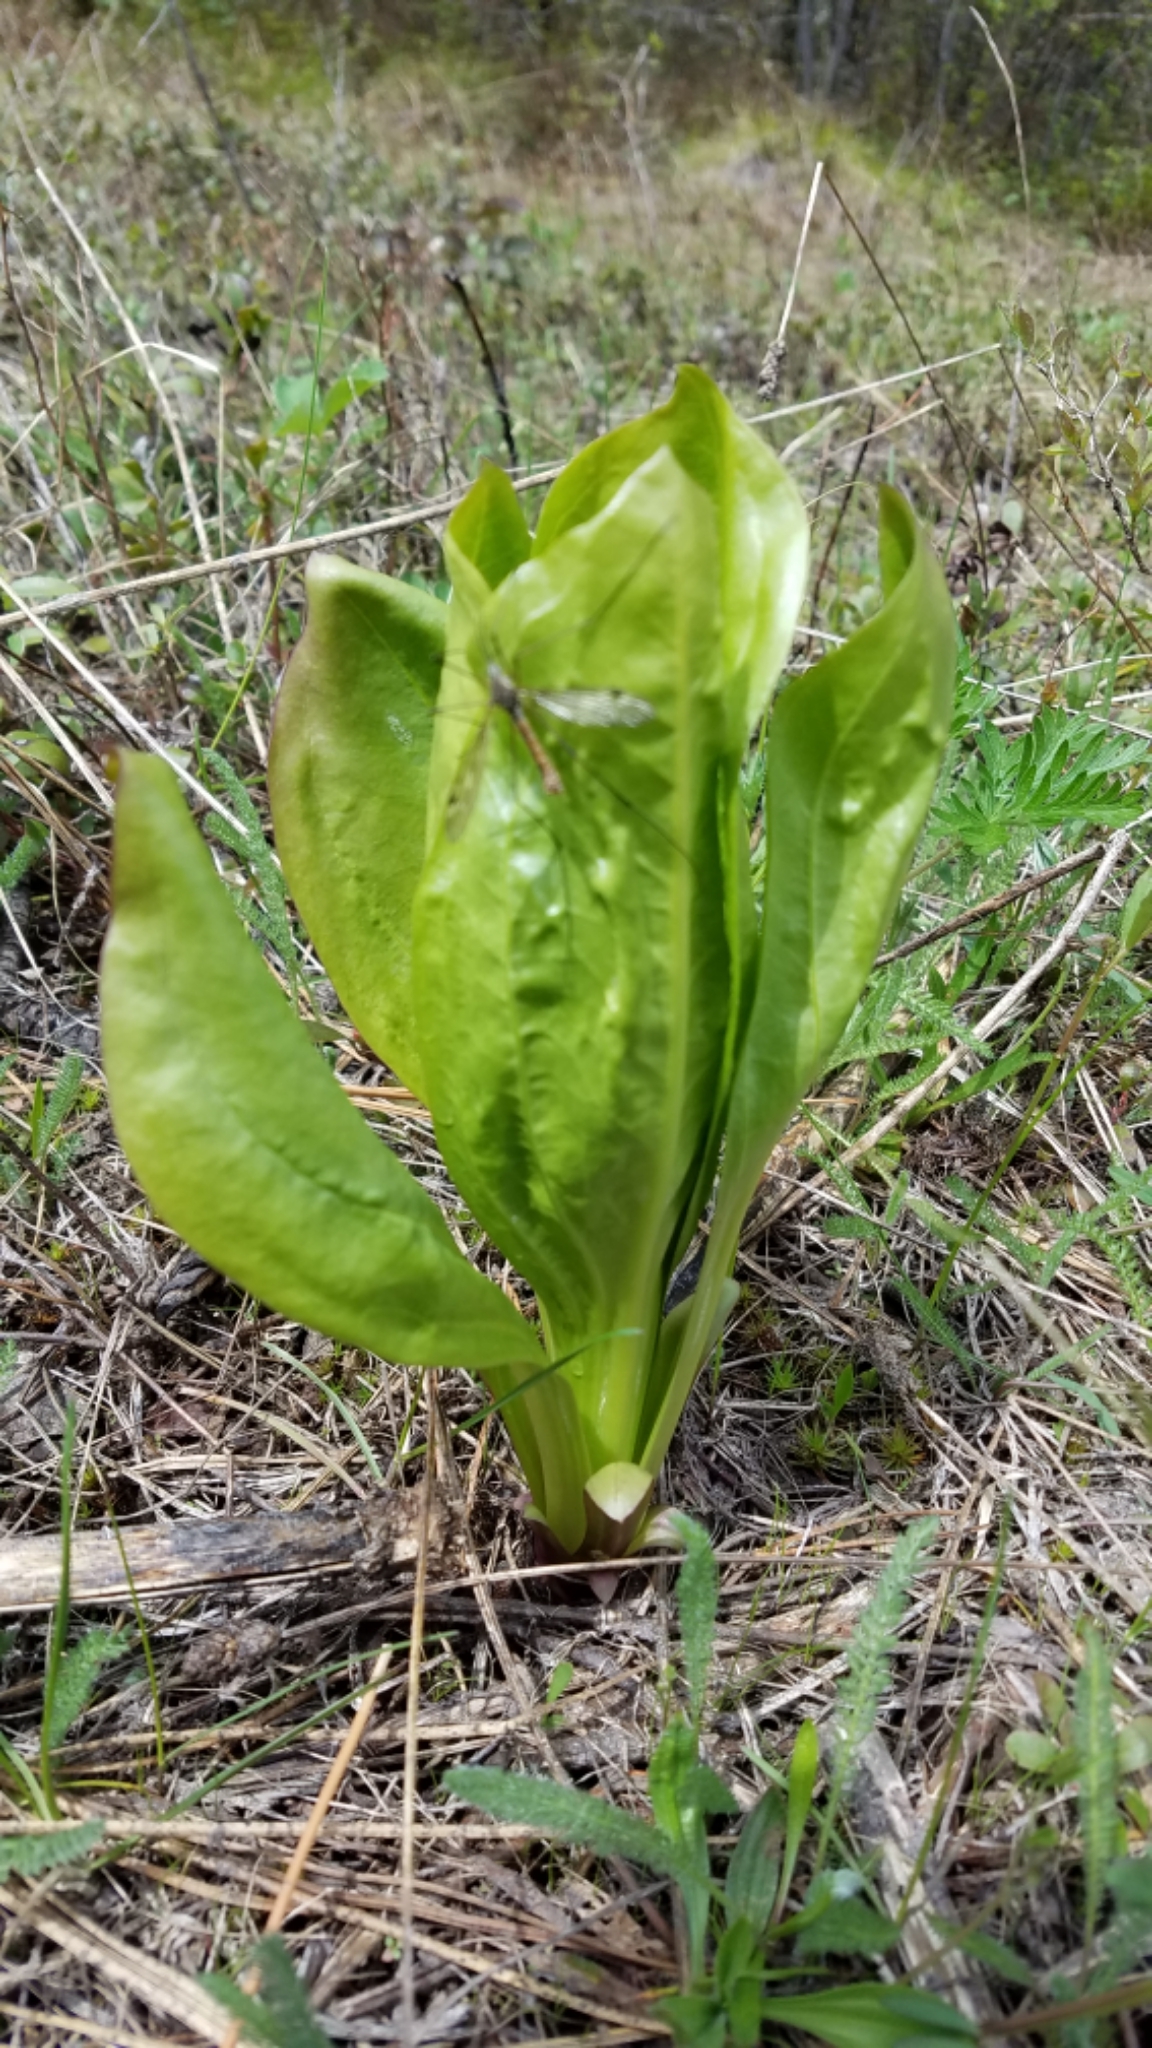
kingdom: Plantae
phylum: Tracheophyta
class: Liliopsida
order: Alismatales
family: Araceae
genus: Lysichiton
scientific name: Lysichiton americanus
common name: American skunk cabbage
